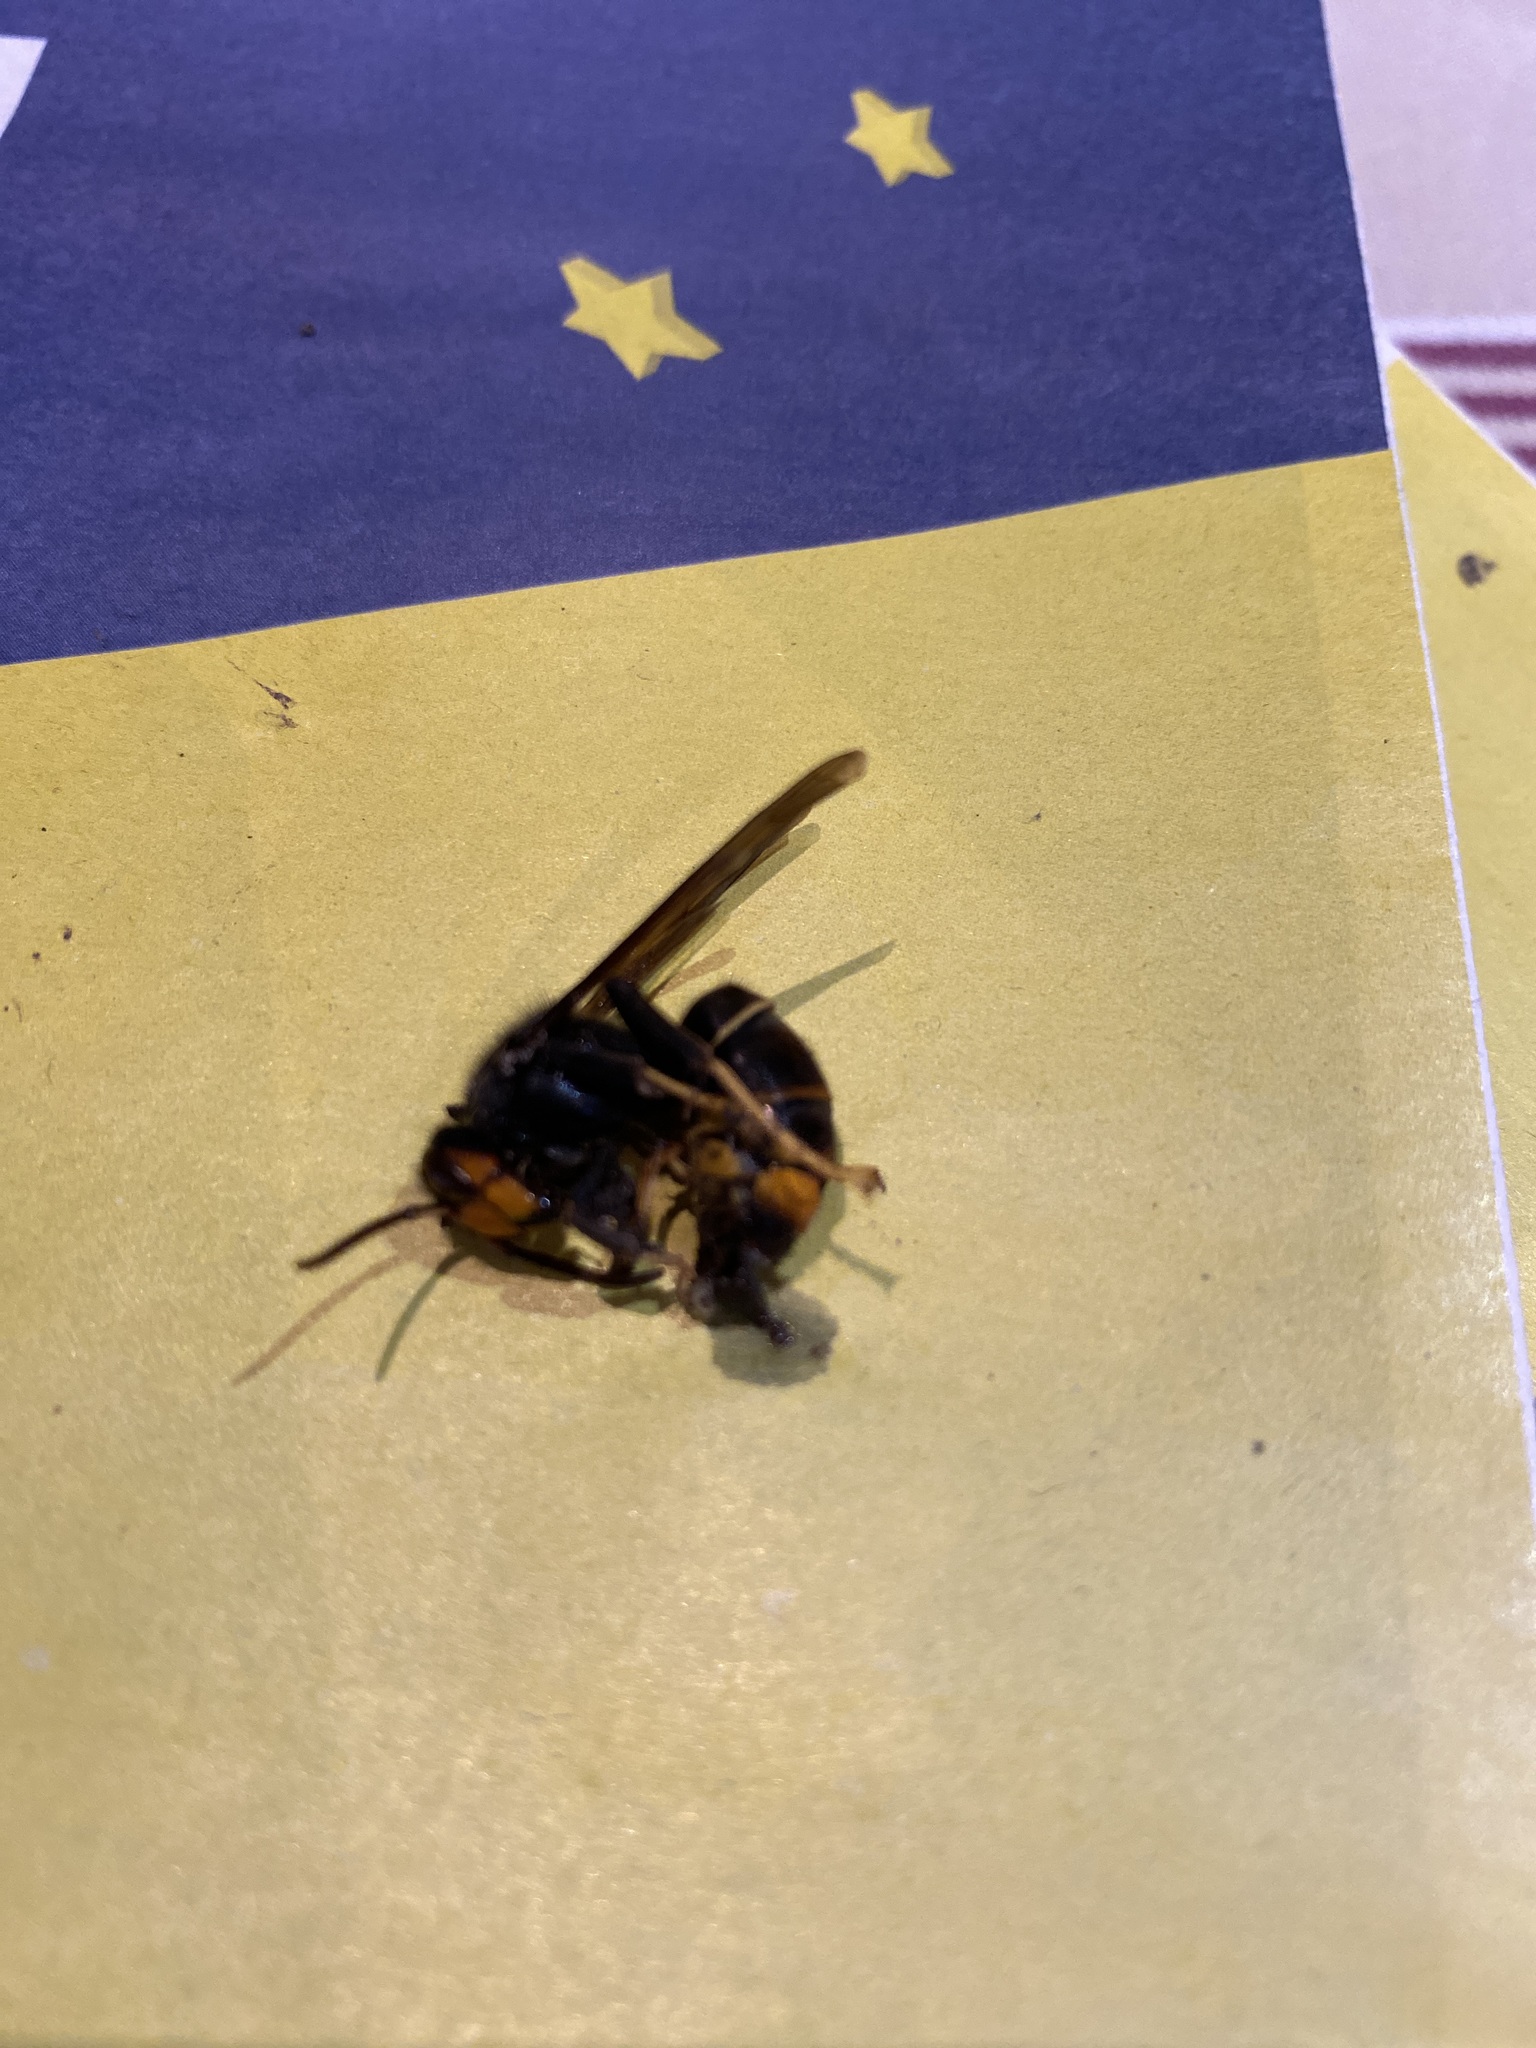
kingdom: Animalia
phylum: Arthropoda
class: Insecta
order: Hymenoptera
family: Vespidae
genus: Vespa
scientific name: Vespa velutina
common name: Asian hornet
